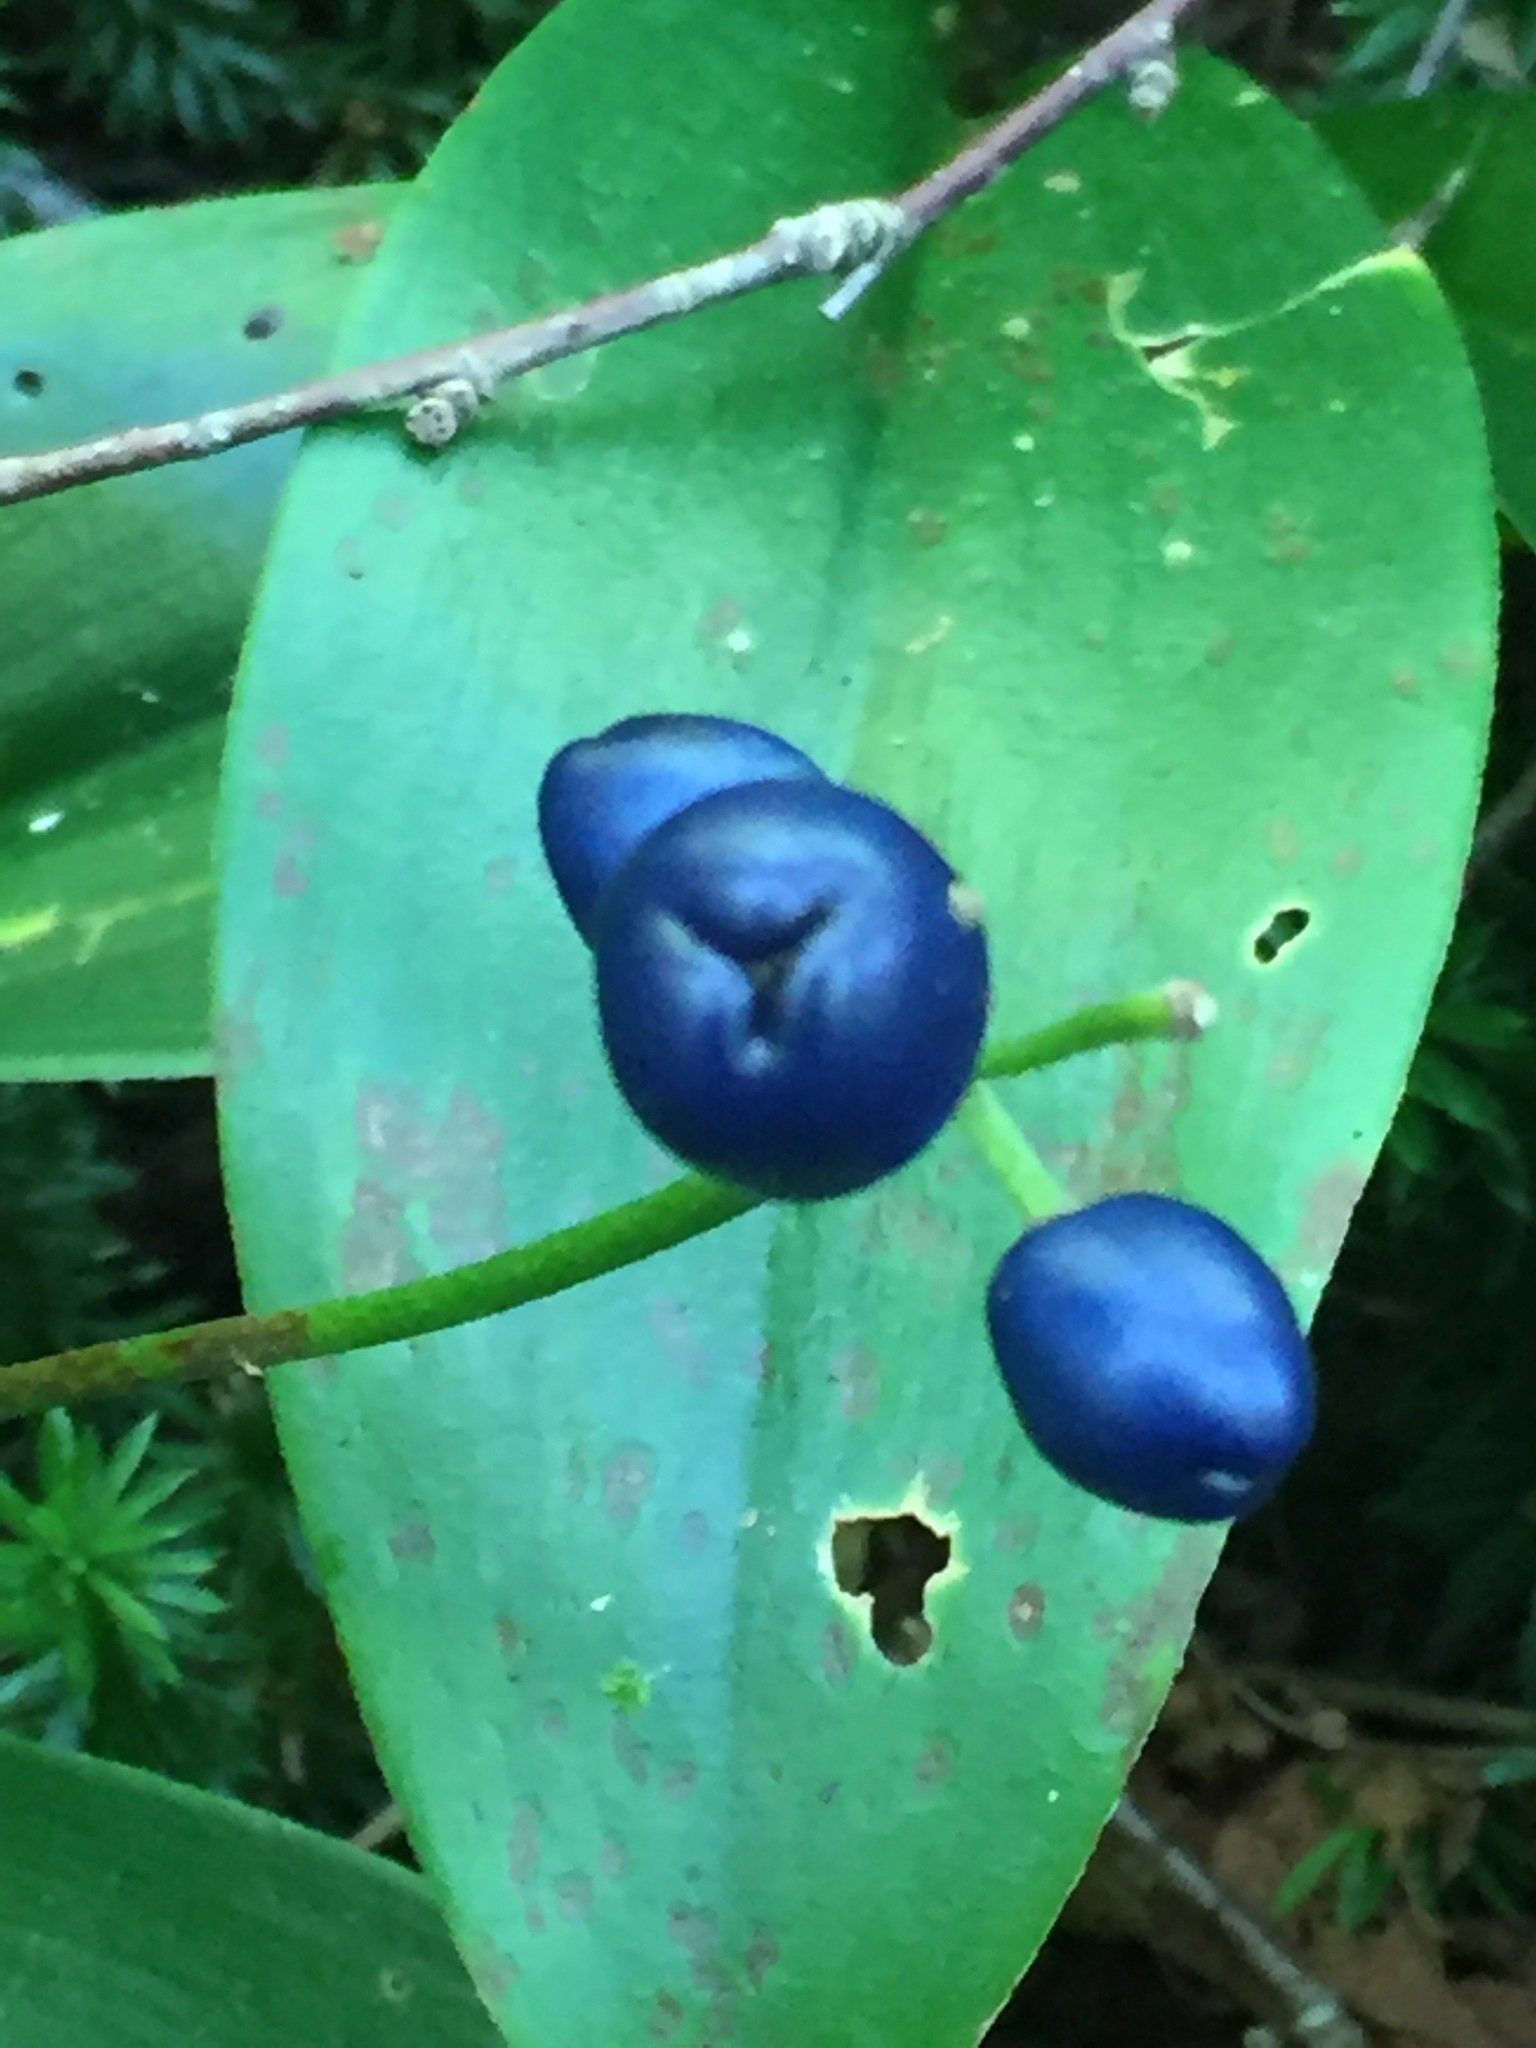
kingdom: Plantae
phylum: Tracheophyta
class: Liliopsida
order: Liliales
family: Liliaceae
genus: Clintonia
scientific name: Clintonia borealis
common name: Yellow clintonia
